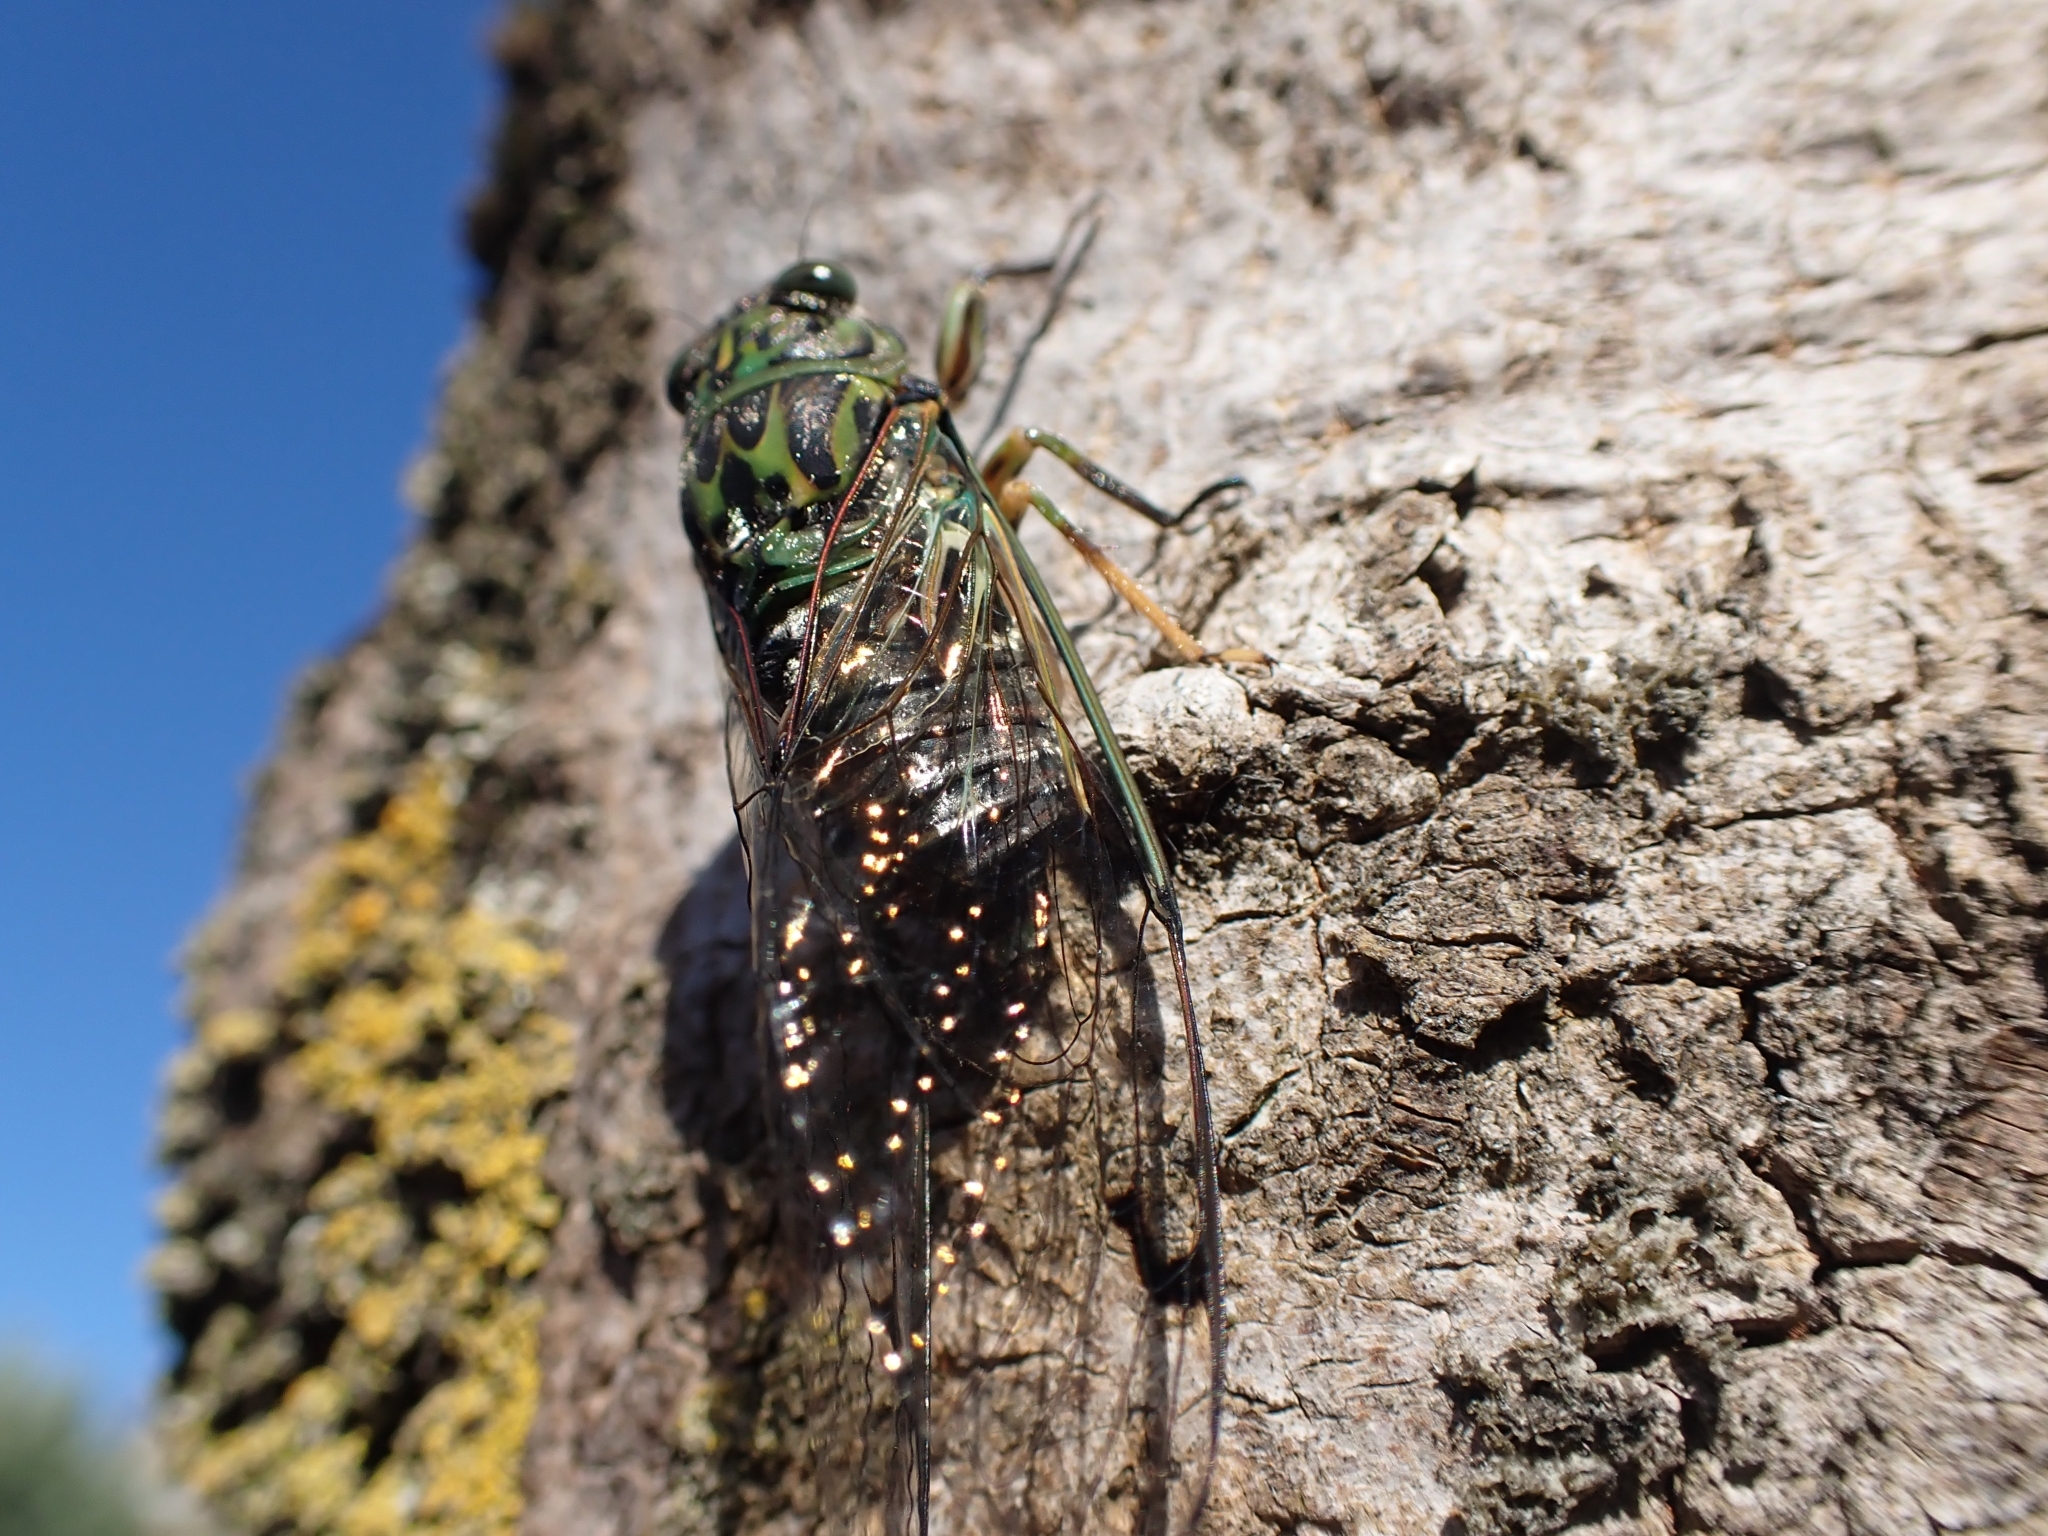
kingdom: Animalia
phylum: Arthropoda
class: Insecta
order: Hemiptera
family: Cicadidae
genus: Amphipsalta
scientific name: Amphipsalta zelandica
